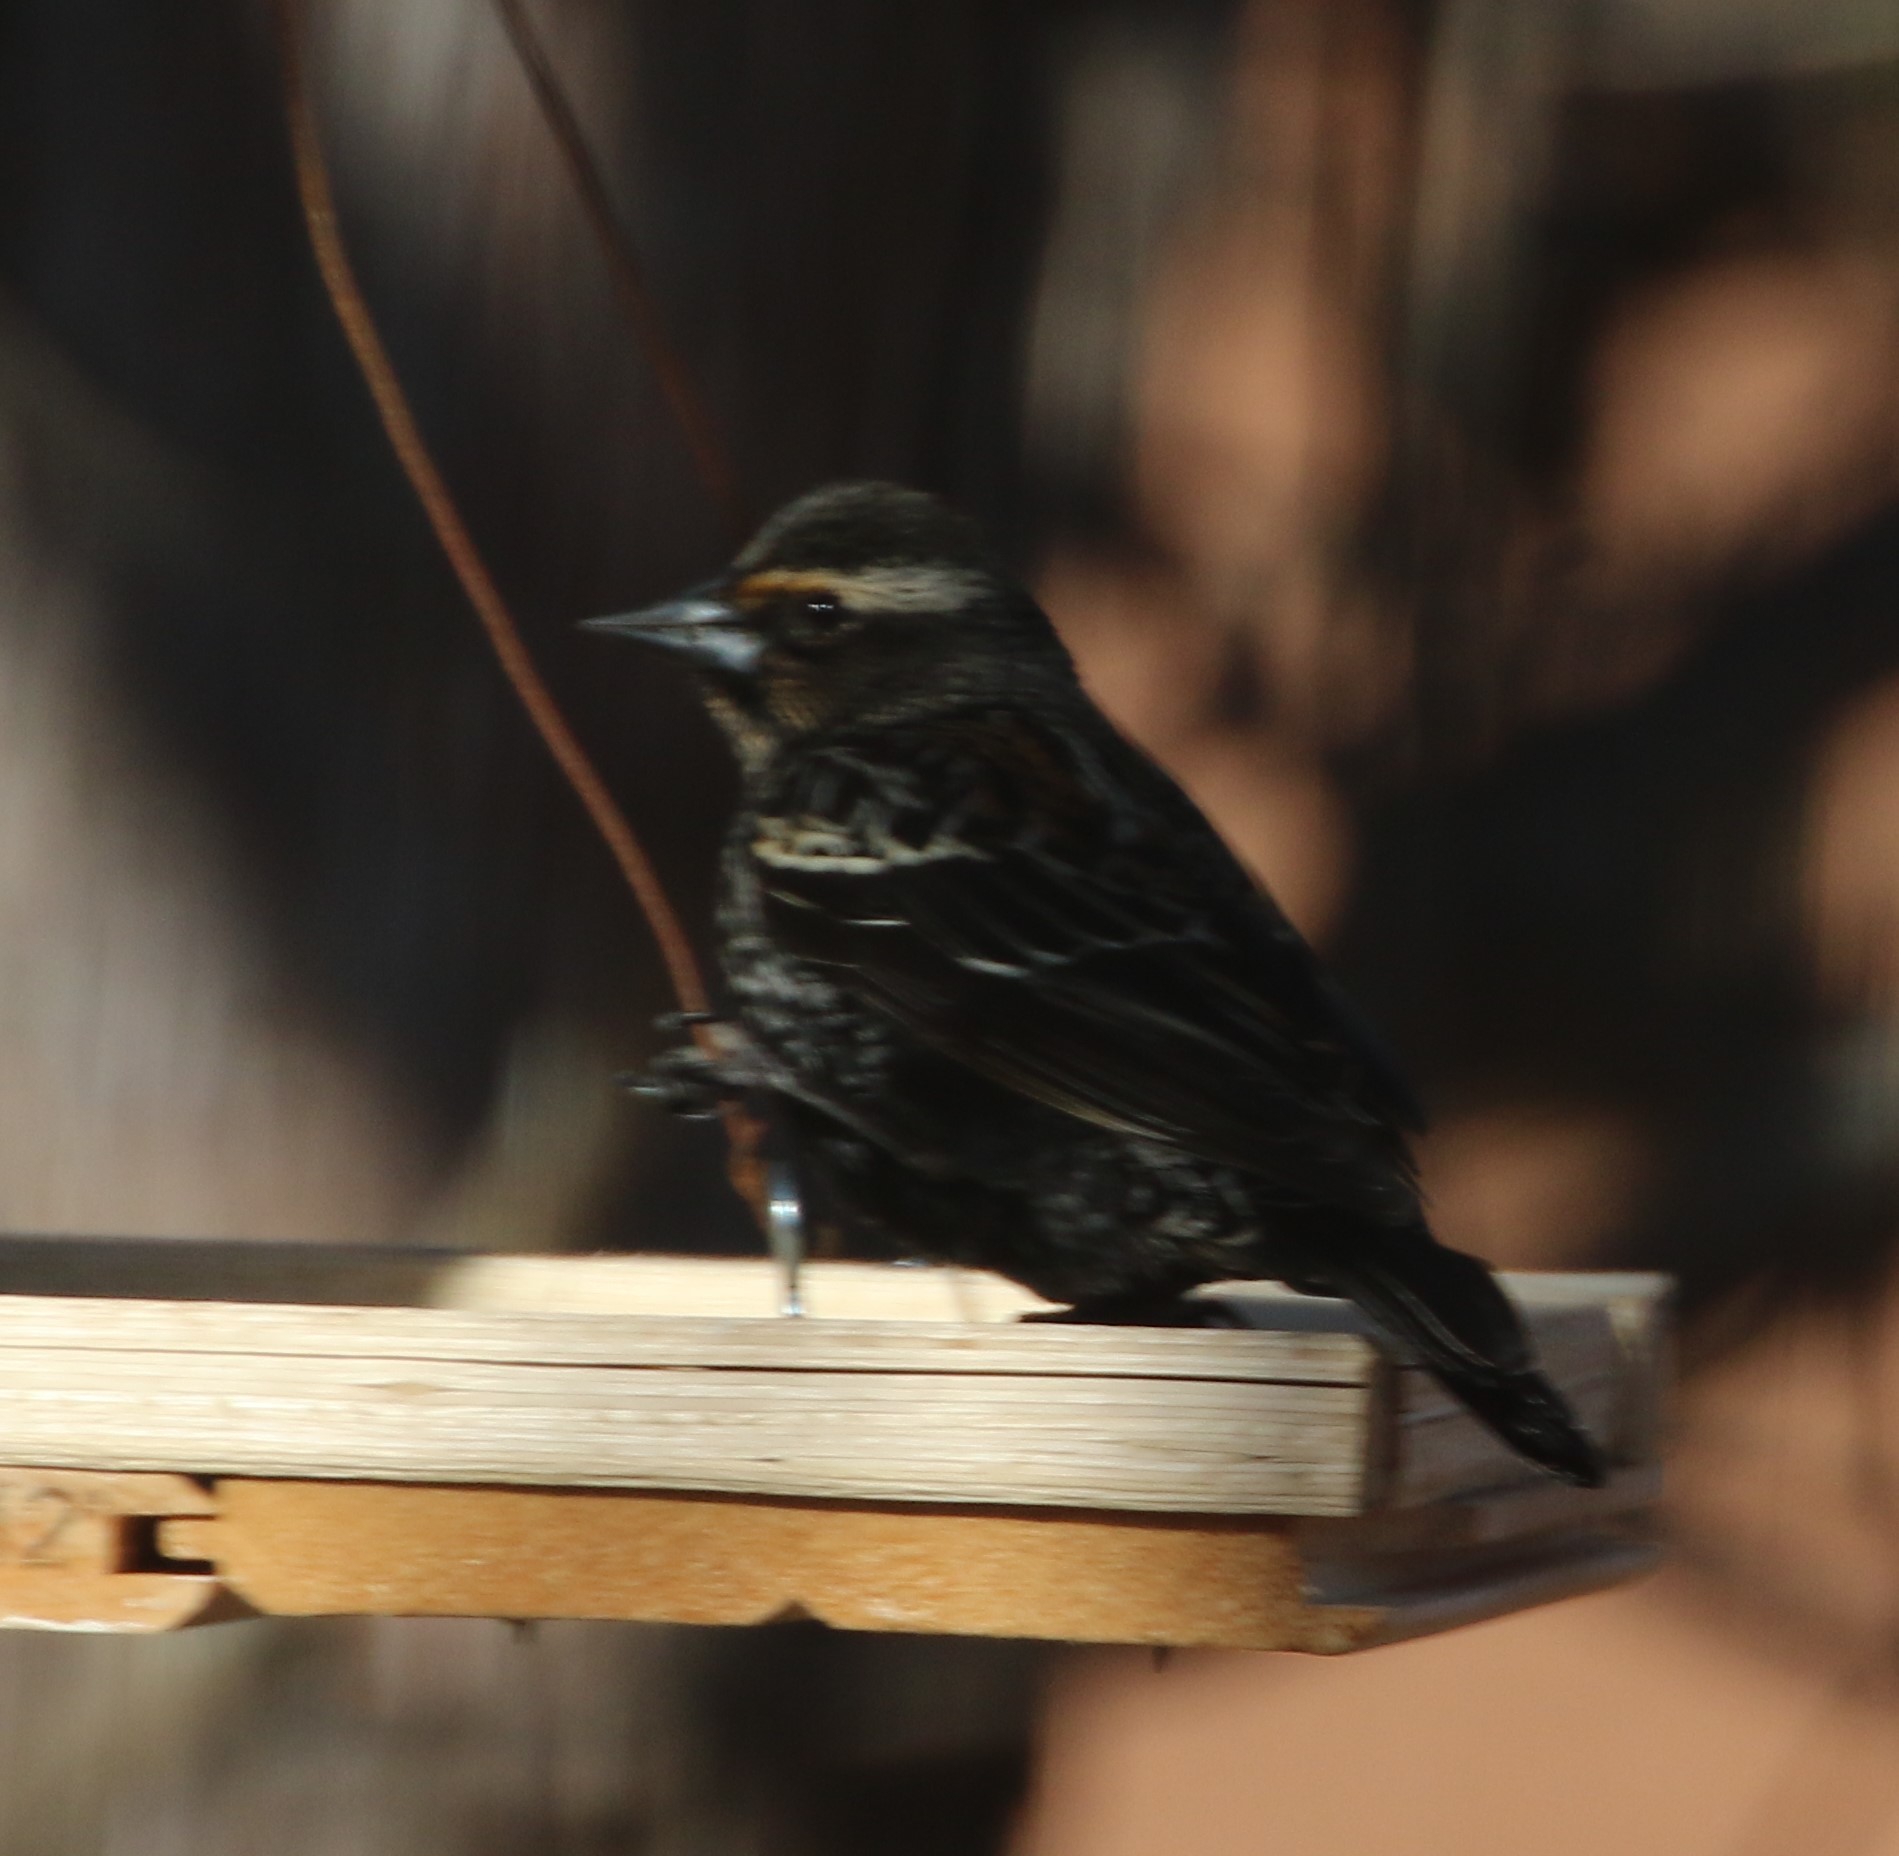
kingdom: Animalia
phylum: Chordata
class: Aves
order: Passeriformes
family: Icteridae
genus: Agelaius
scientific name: Agelaius phoeniceus
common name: Red-winged blackbird
